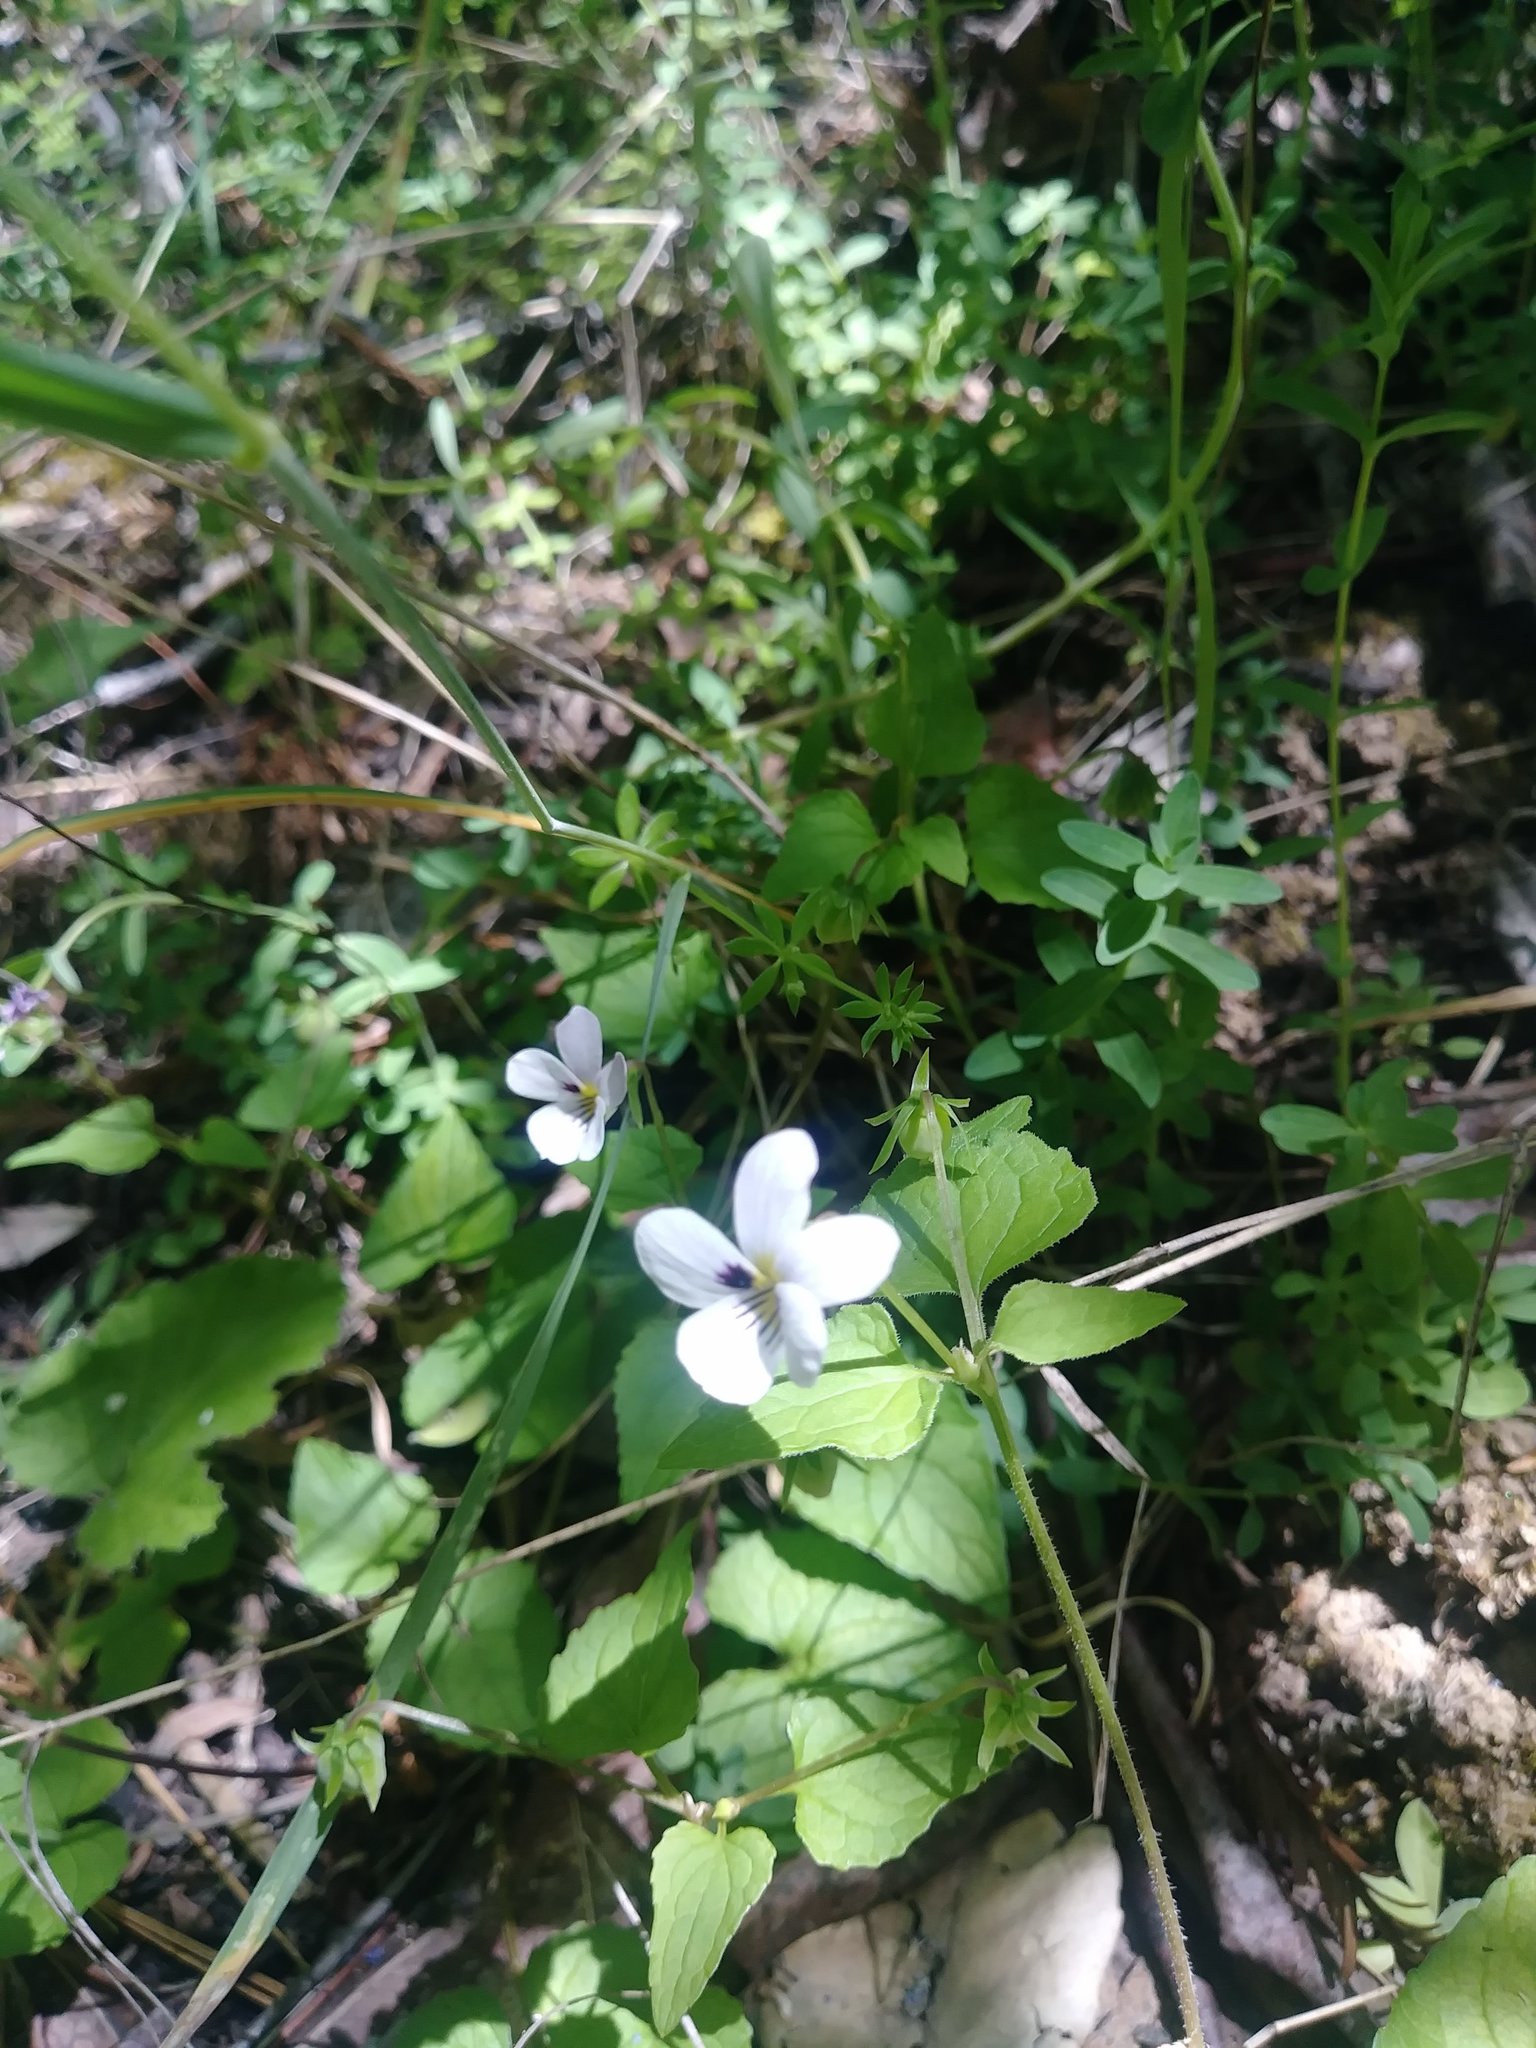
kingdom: Plantae
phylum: Tracheophyta
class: Magnoliopsida
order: Malpighiales
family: Violaceae
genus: Viola
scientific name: Viola ocellata
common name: Western heart's ease
